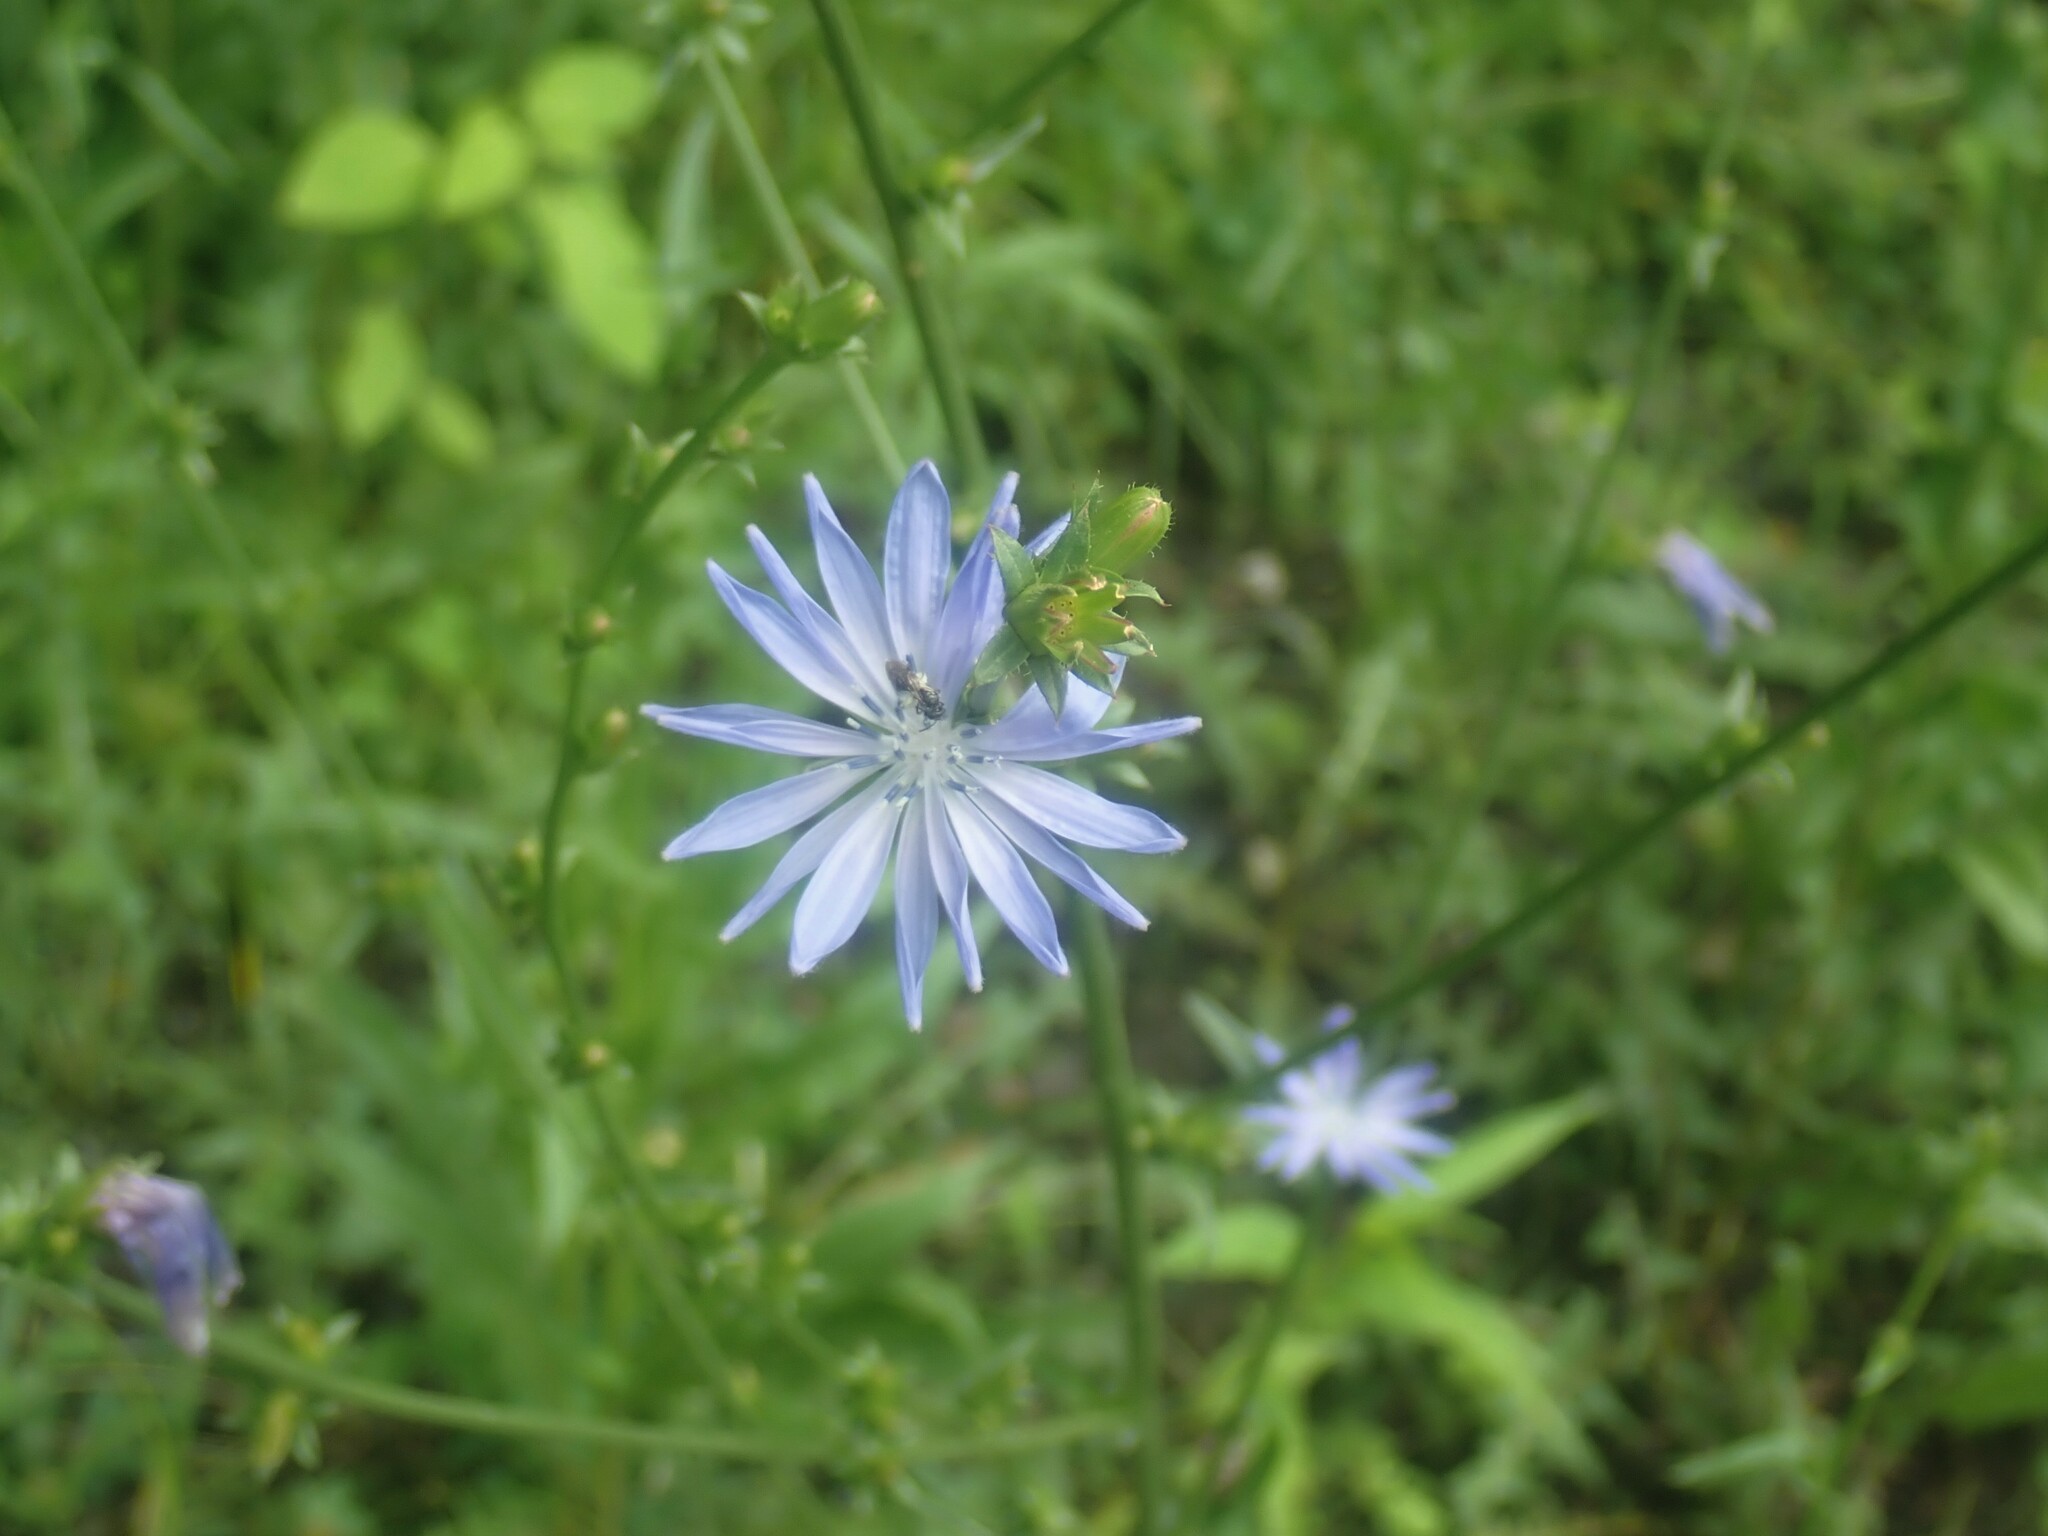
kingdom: Plantae
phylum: Tracheophyta
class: Magnoliopsida
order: Asterales
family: Asteraceae
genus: Cichorium
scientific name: Cichorium intybus
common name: Chicory
